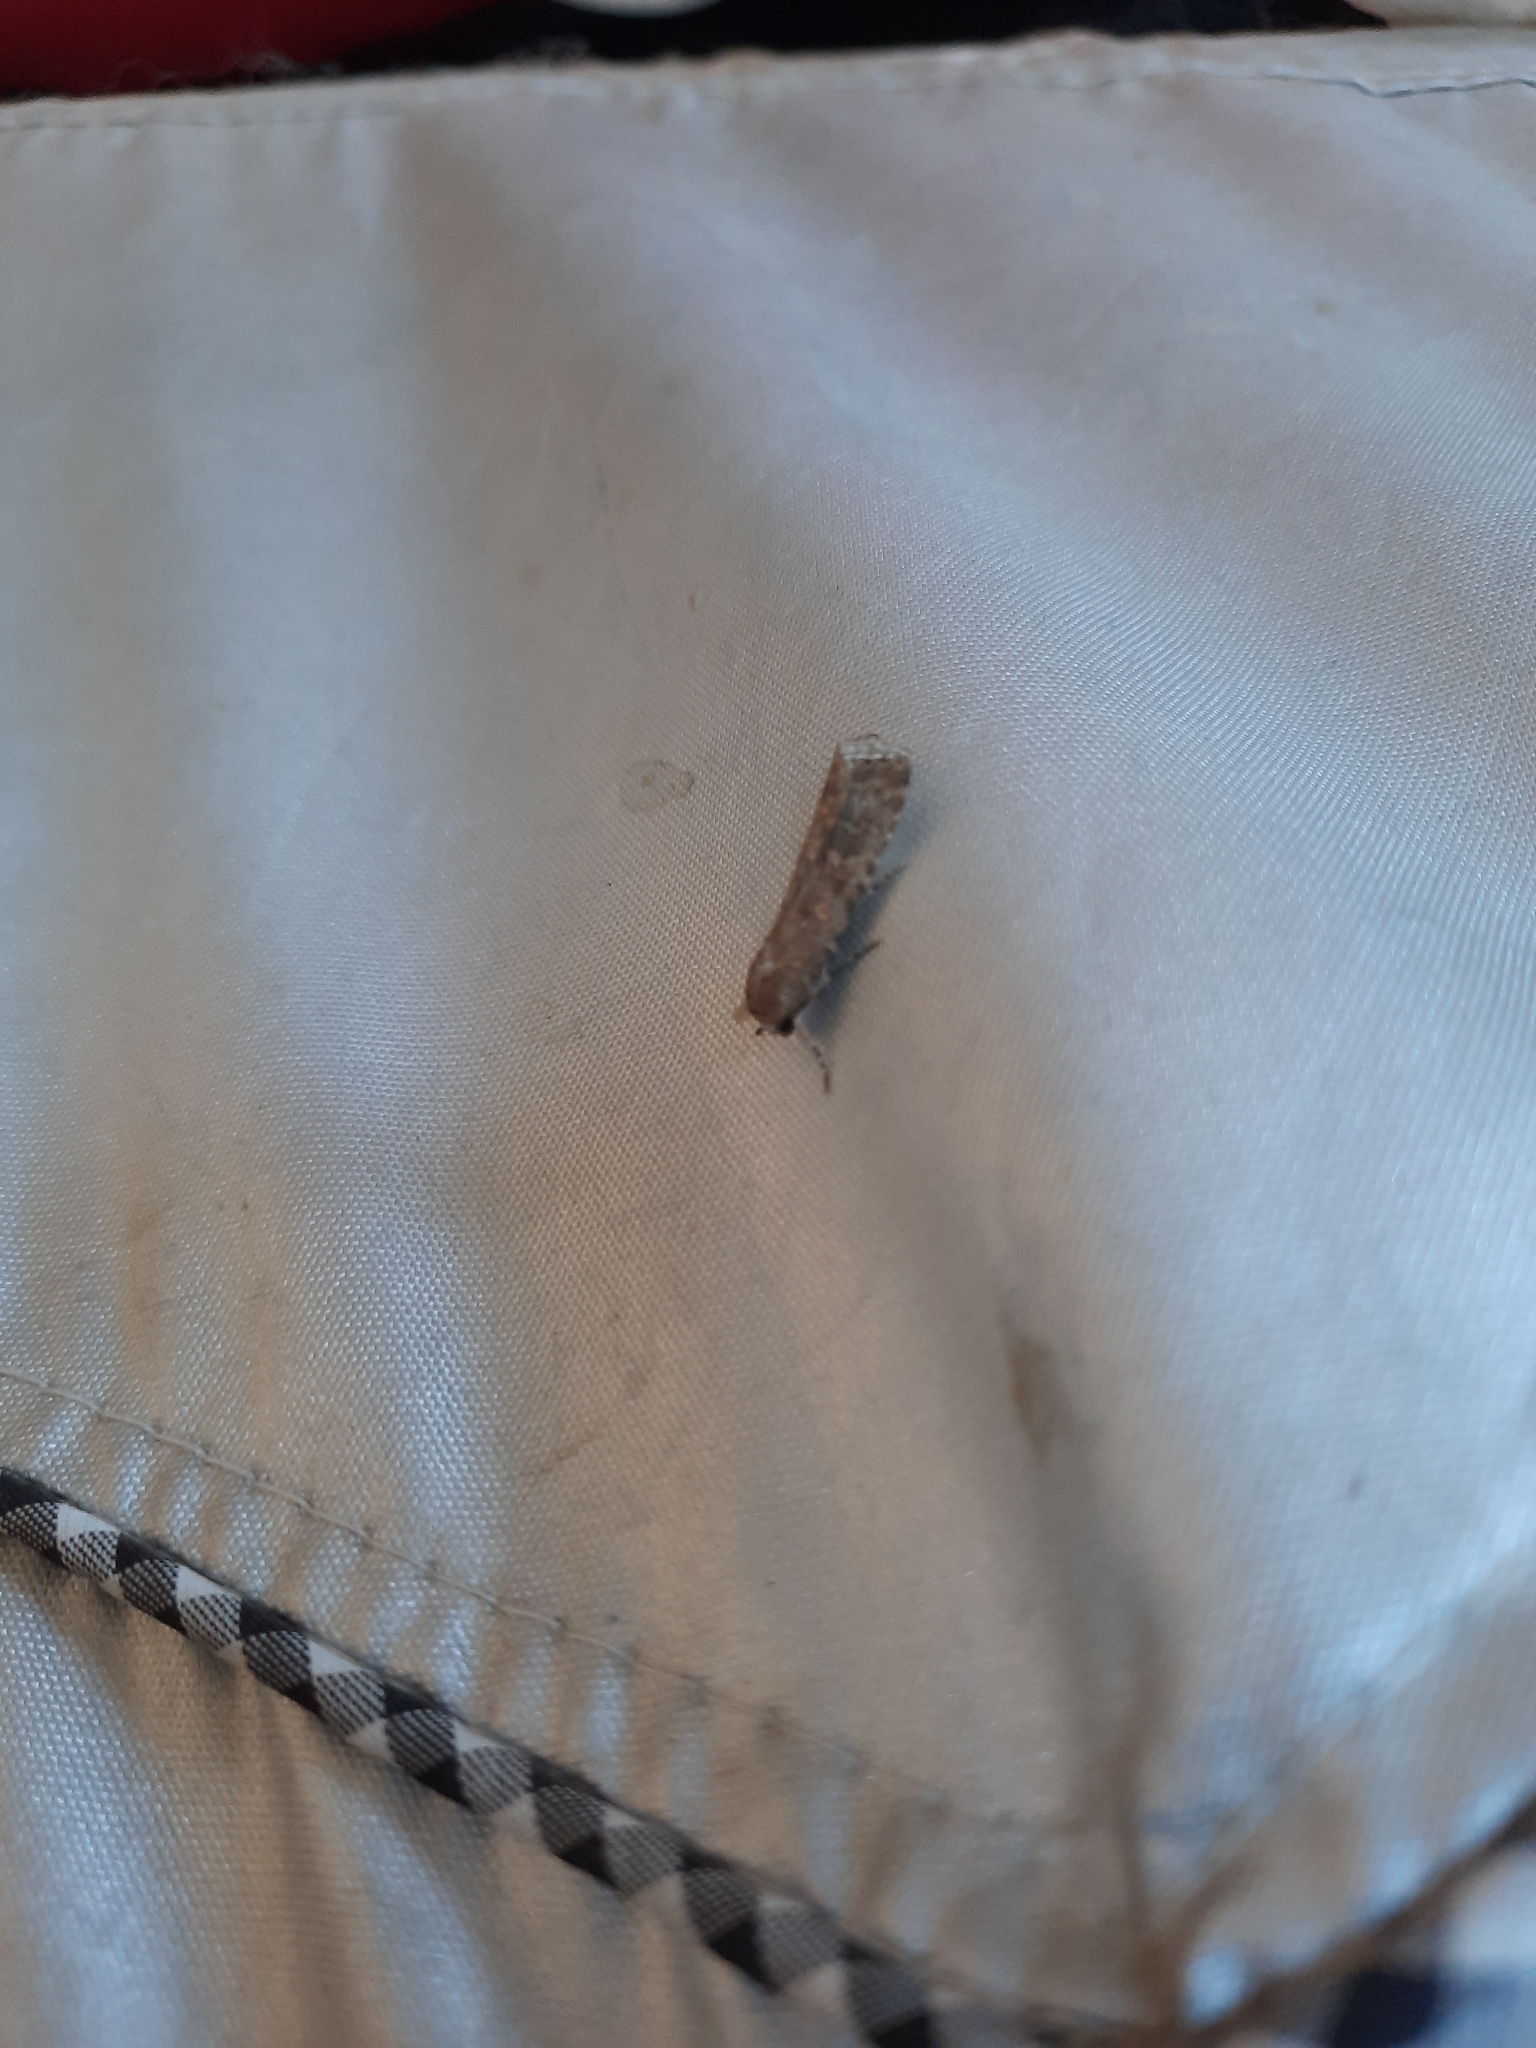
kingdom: Animalia
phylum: Arthropoda
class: Insecta
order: Lepidoptera
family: Noctuidae
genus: Spodoptera
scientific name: Spodoptera exigua
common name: Beet armyworm
